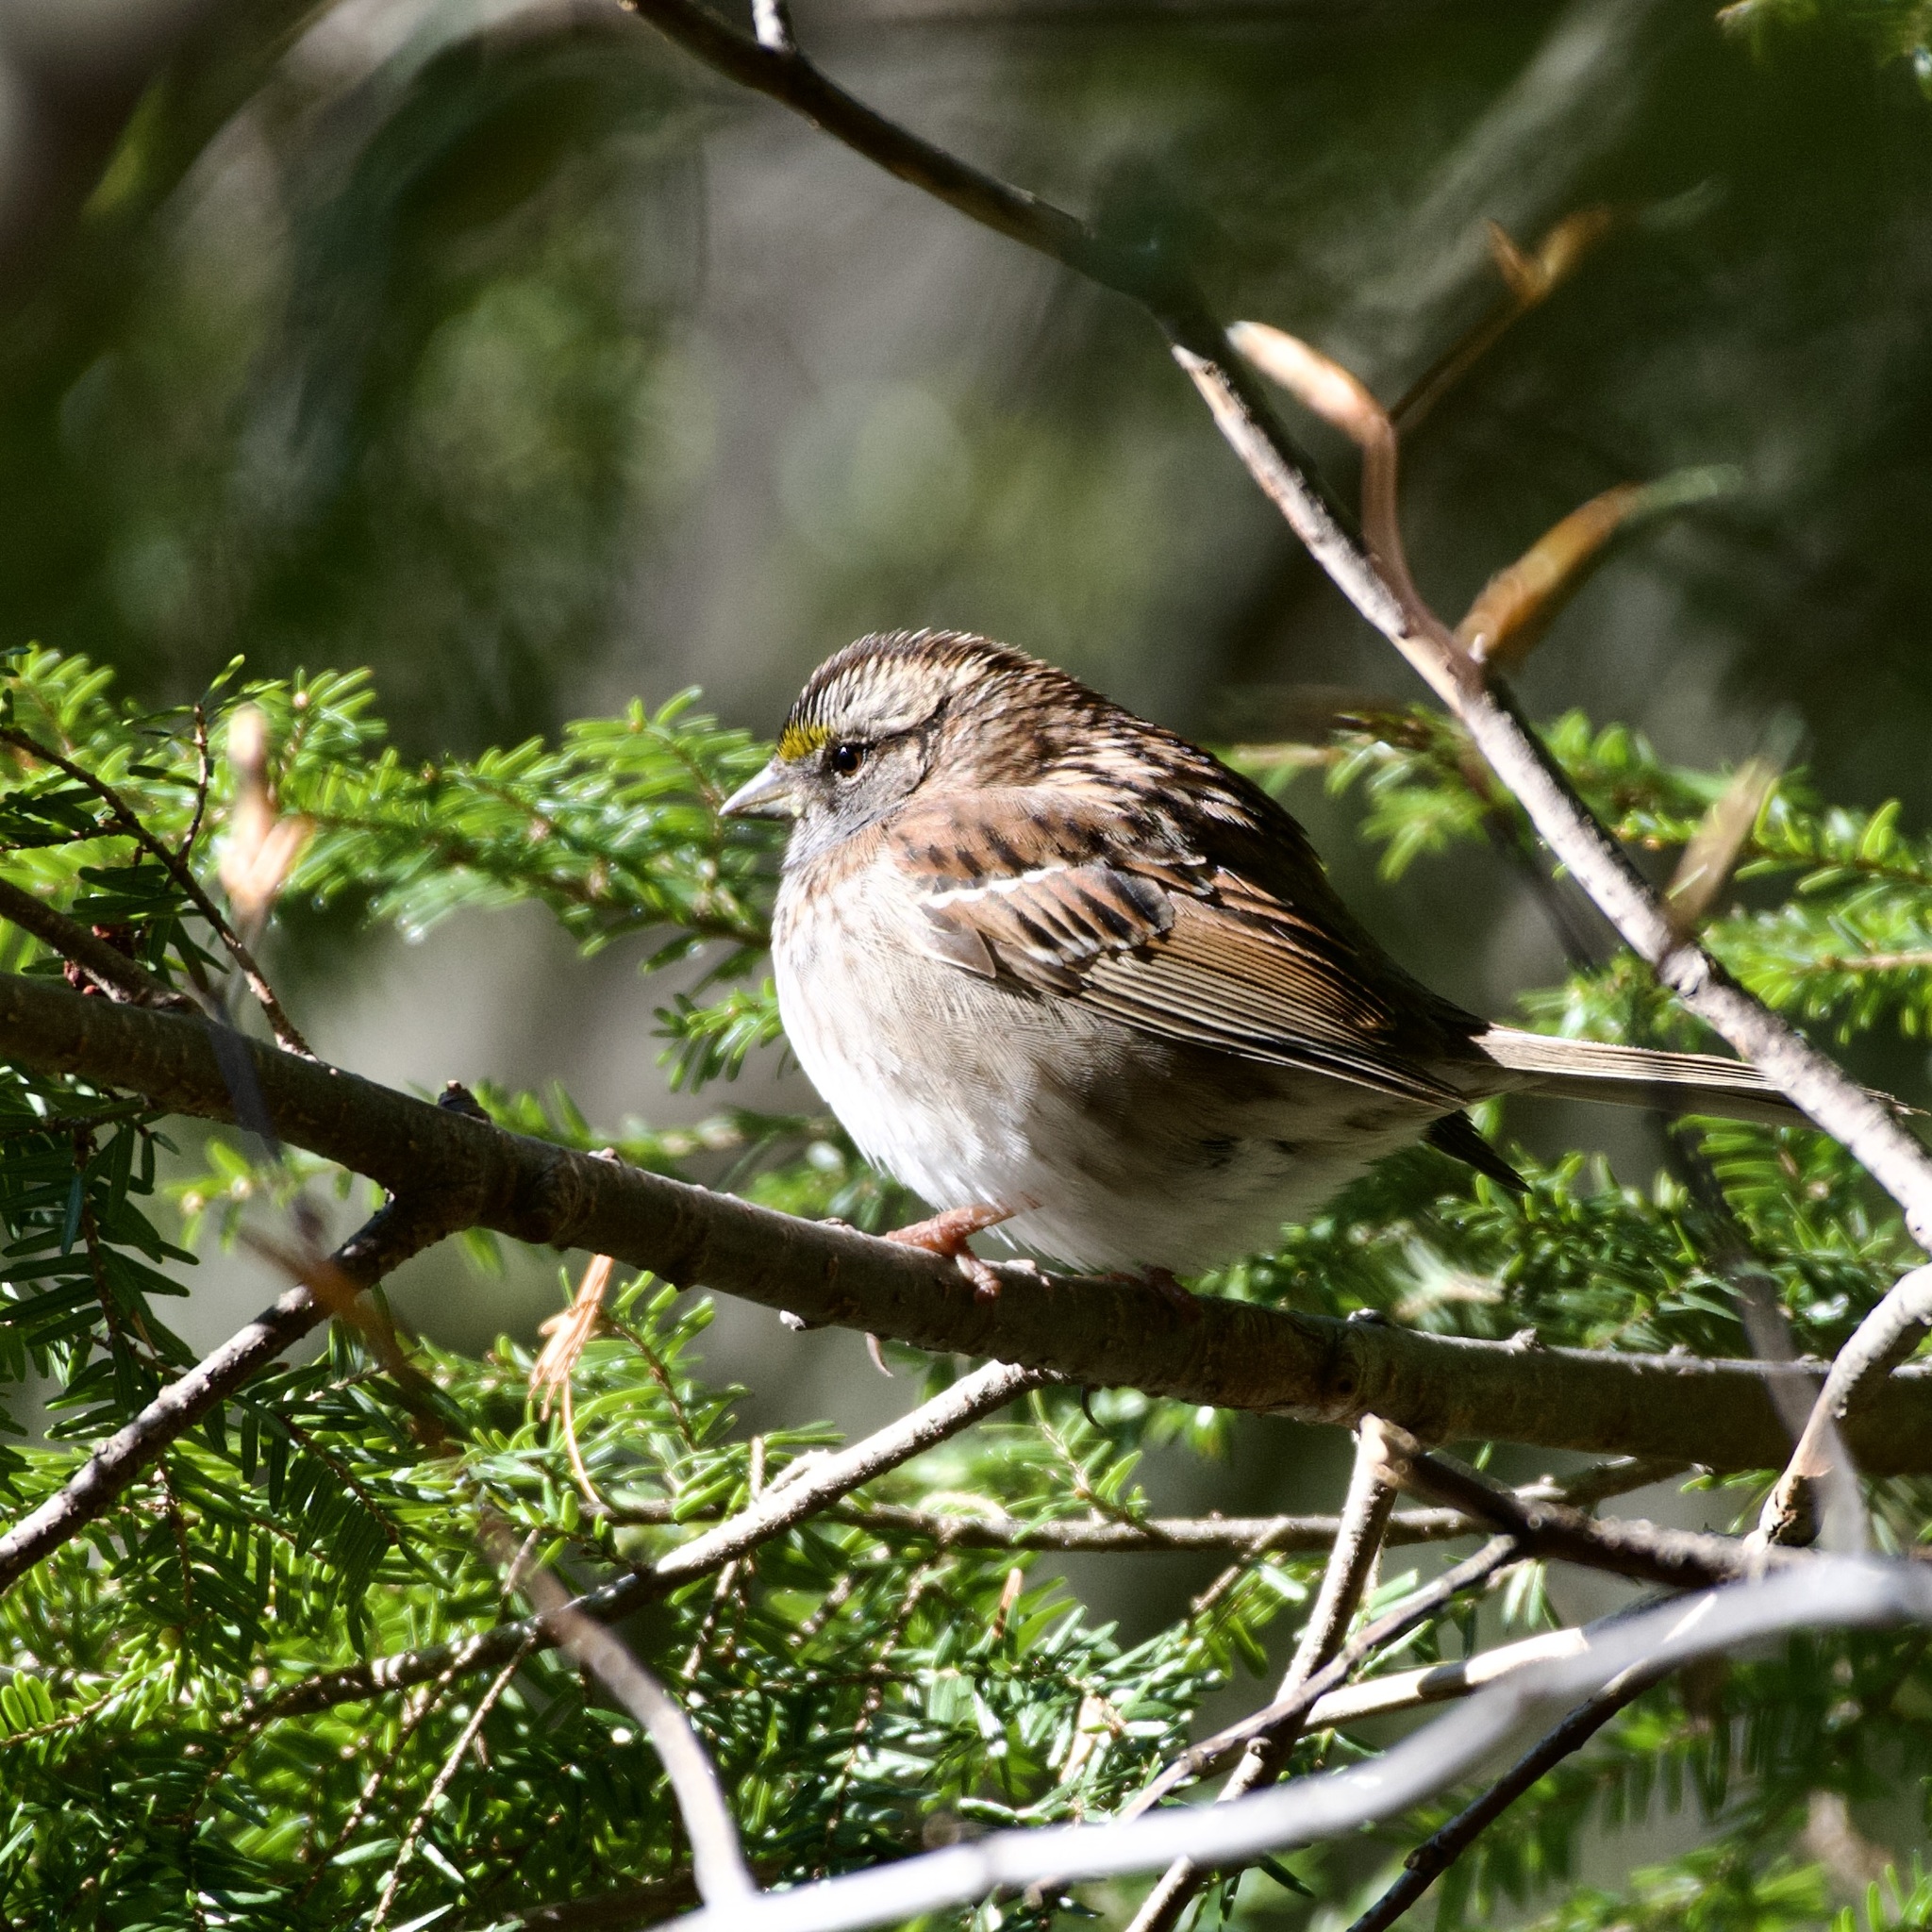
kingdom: Animalia
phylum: Chordata
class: Aves
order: Passeriformes
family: Passerellidae
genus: Zonotrichia
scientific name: Zonotrichia albicollis
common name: White-throated sparrow
